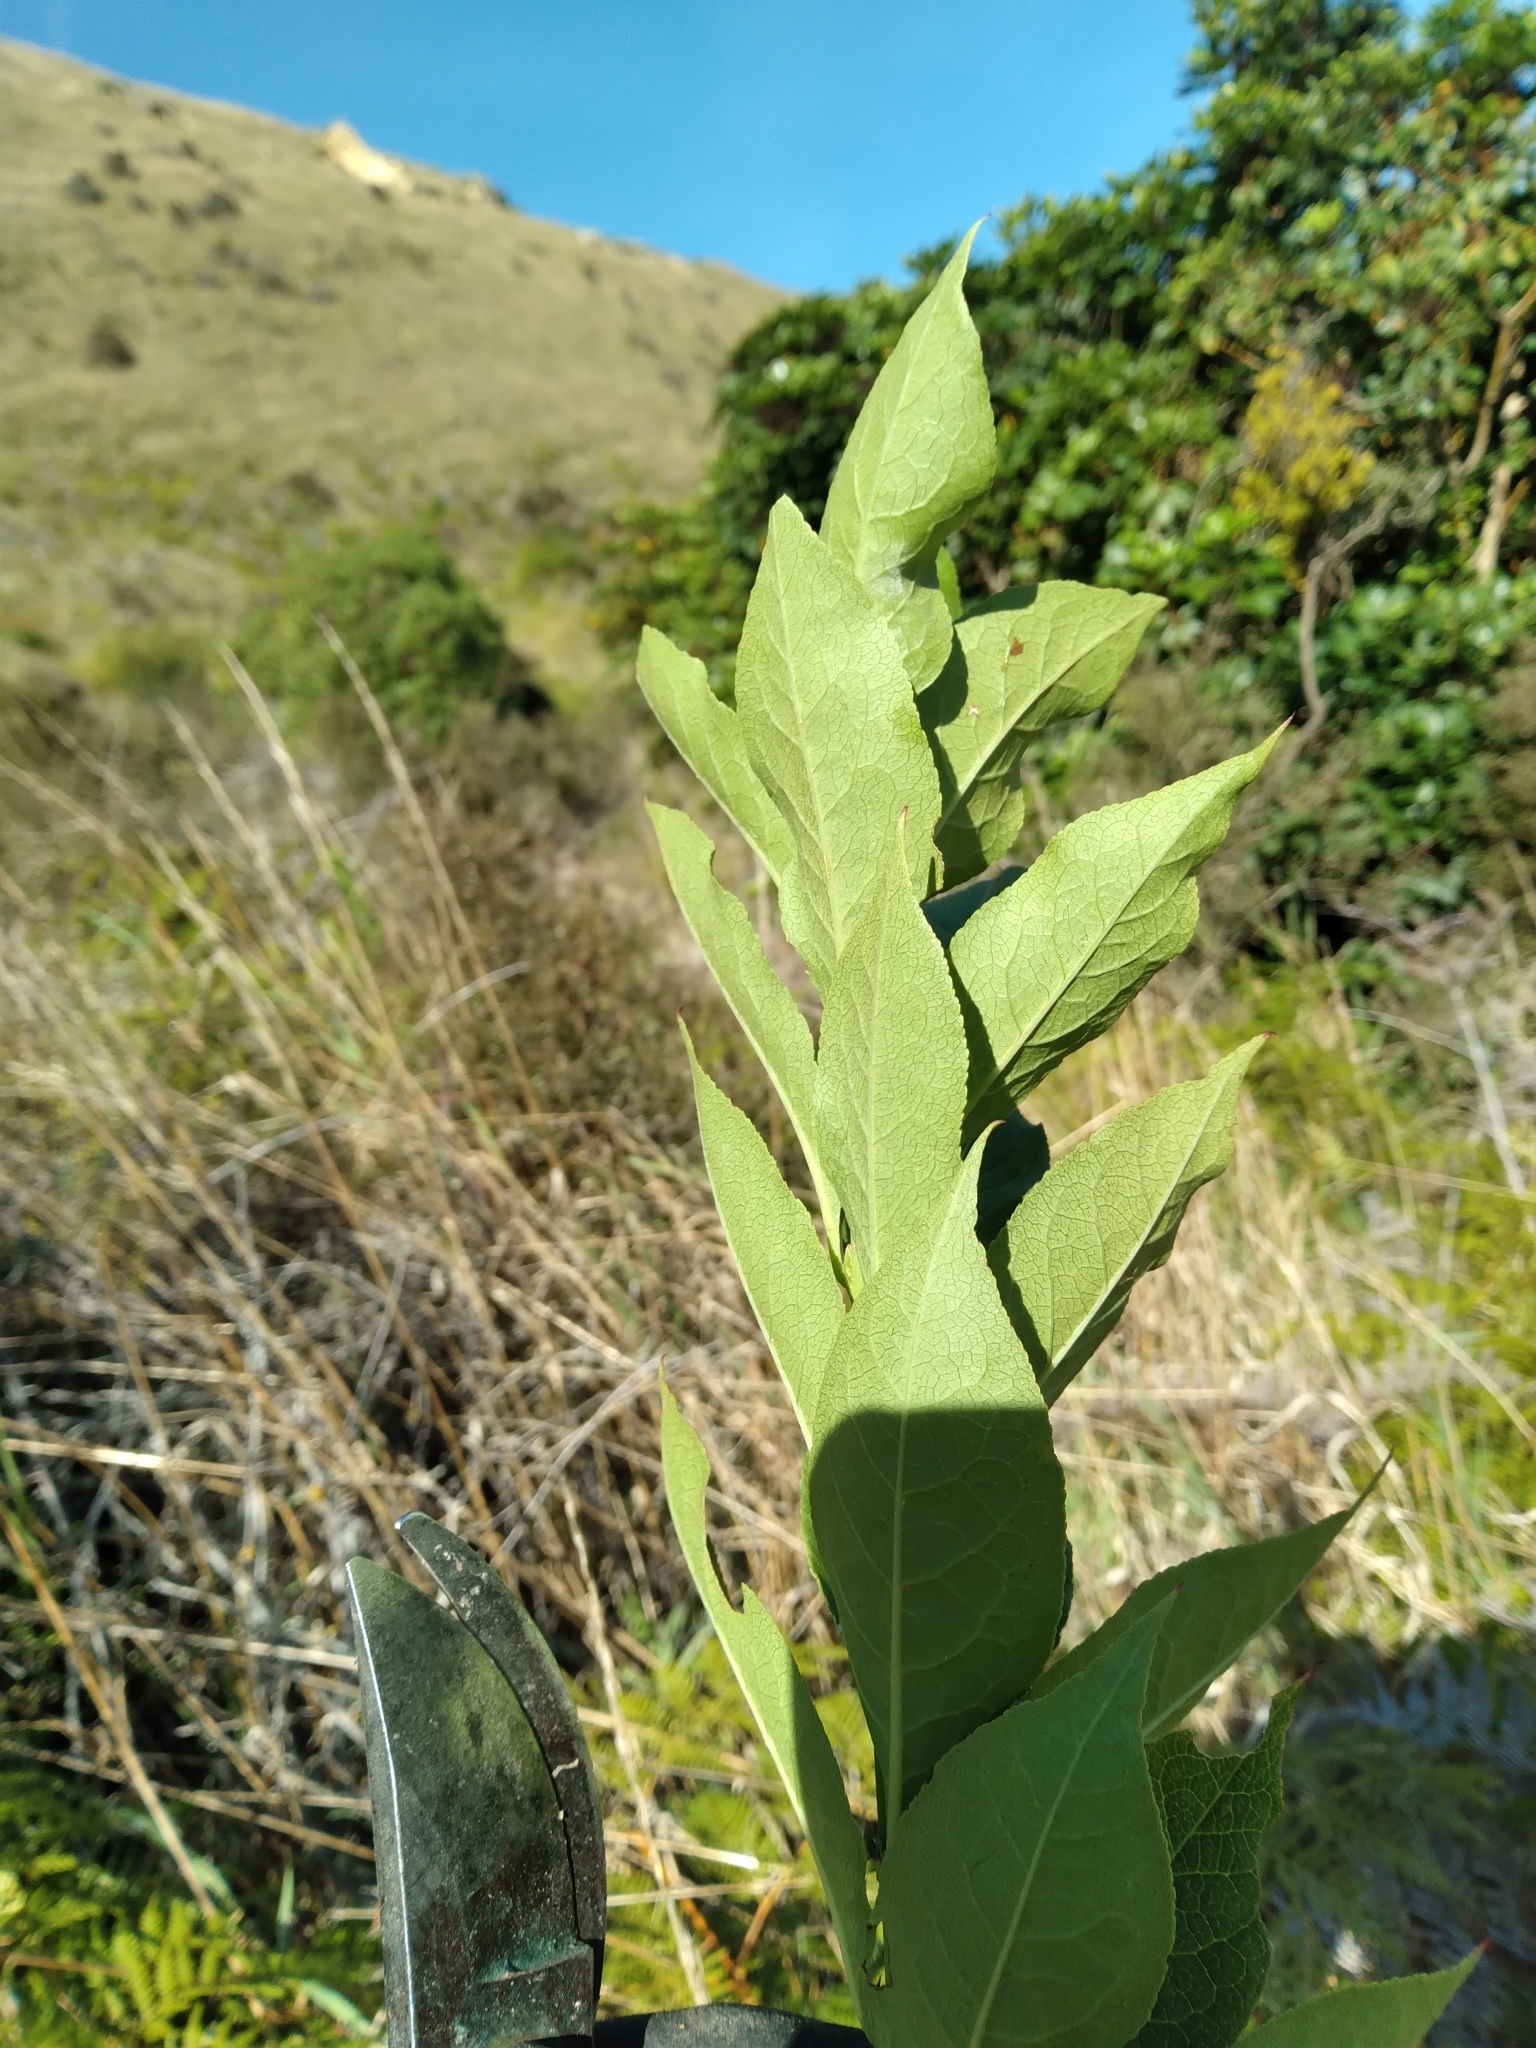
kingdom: Plantae
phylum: Tracheophyta
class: Magnoliopsida
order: Celastrales
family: Celastraceae
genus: Euonymus
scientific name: Euonymus europaeus
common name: Spindle
